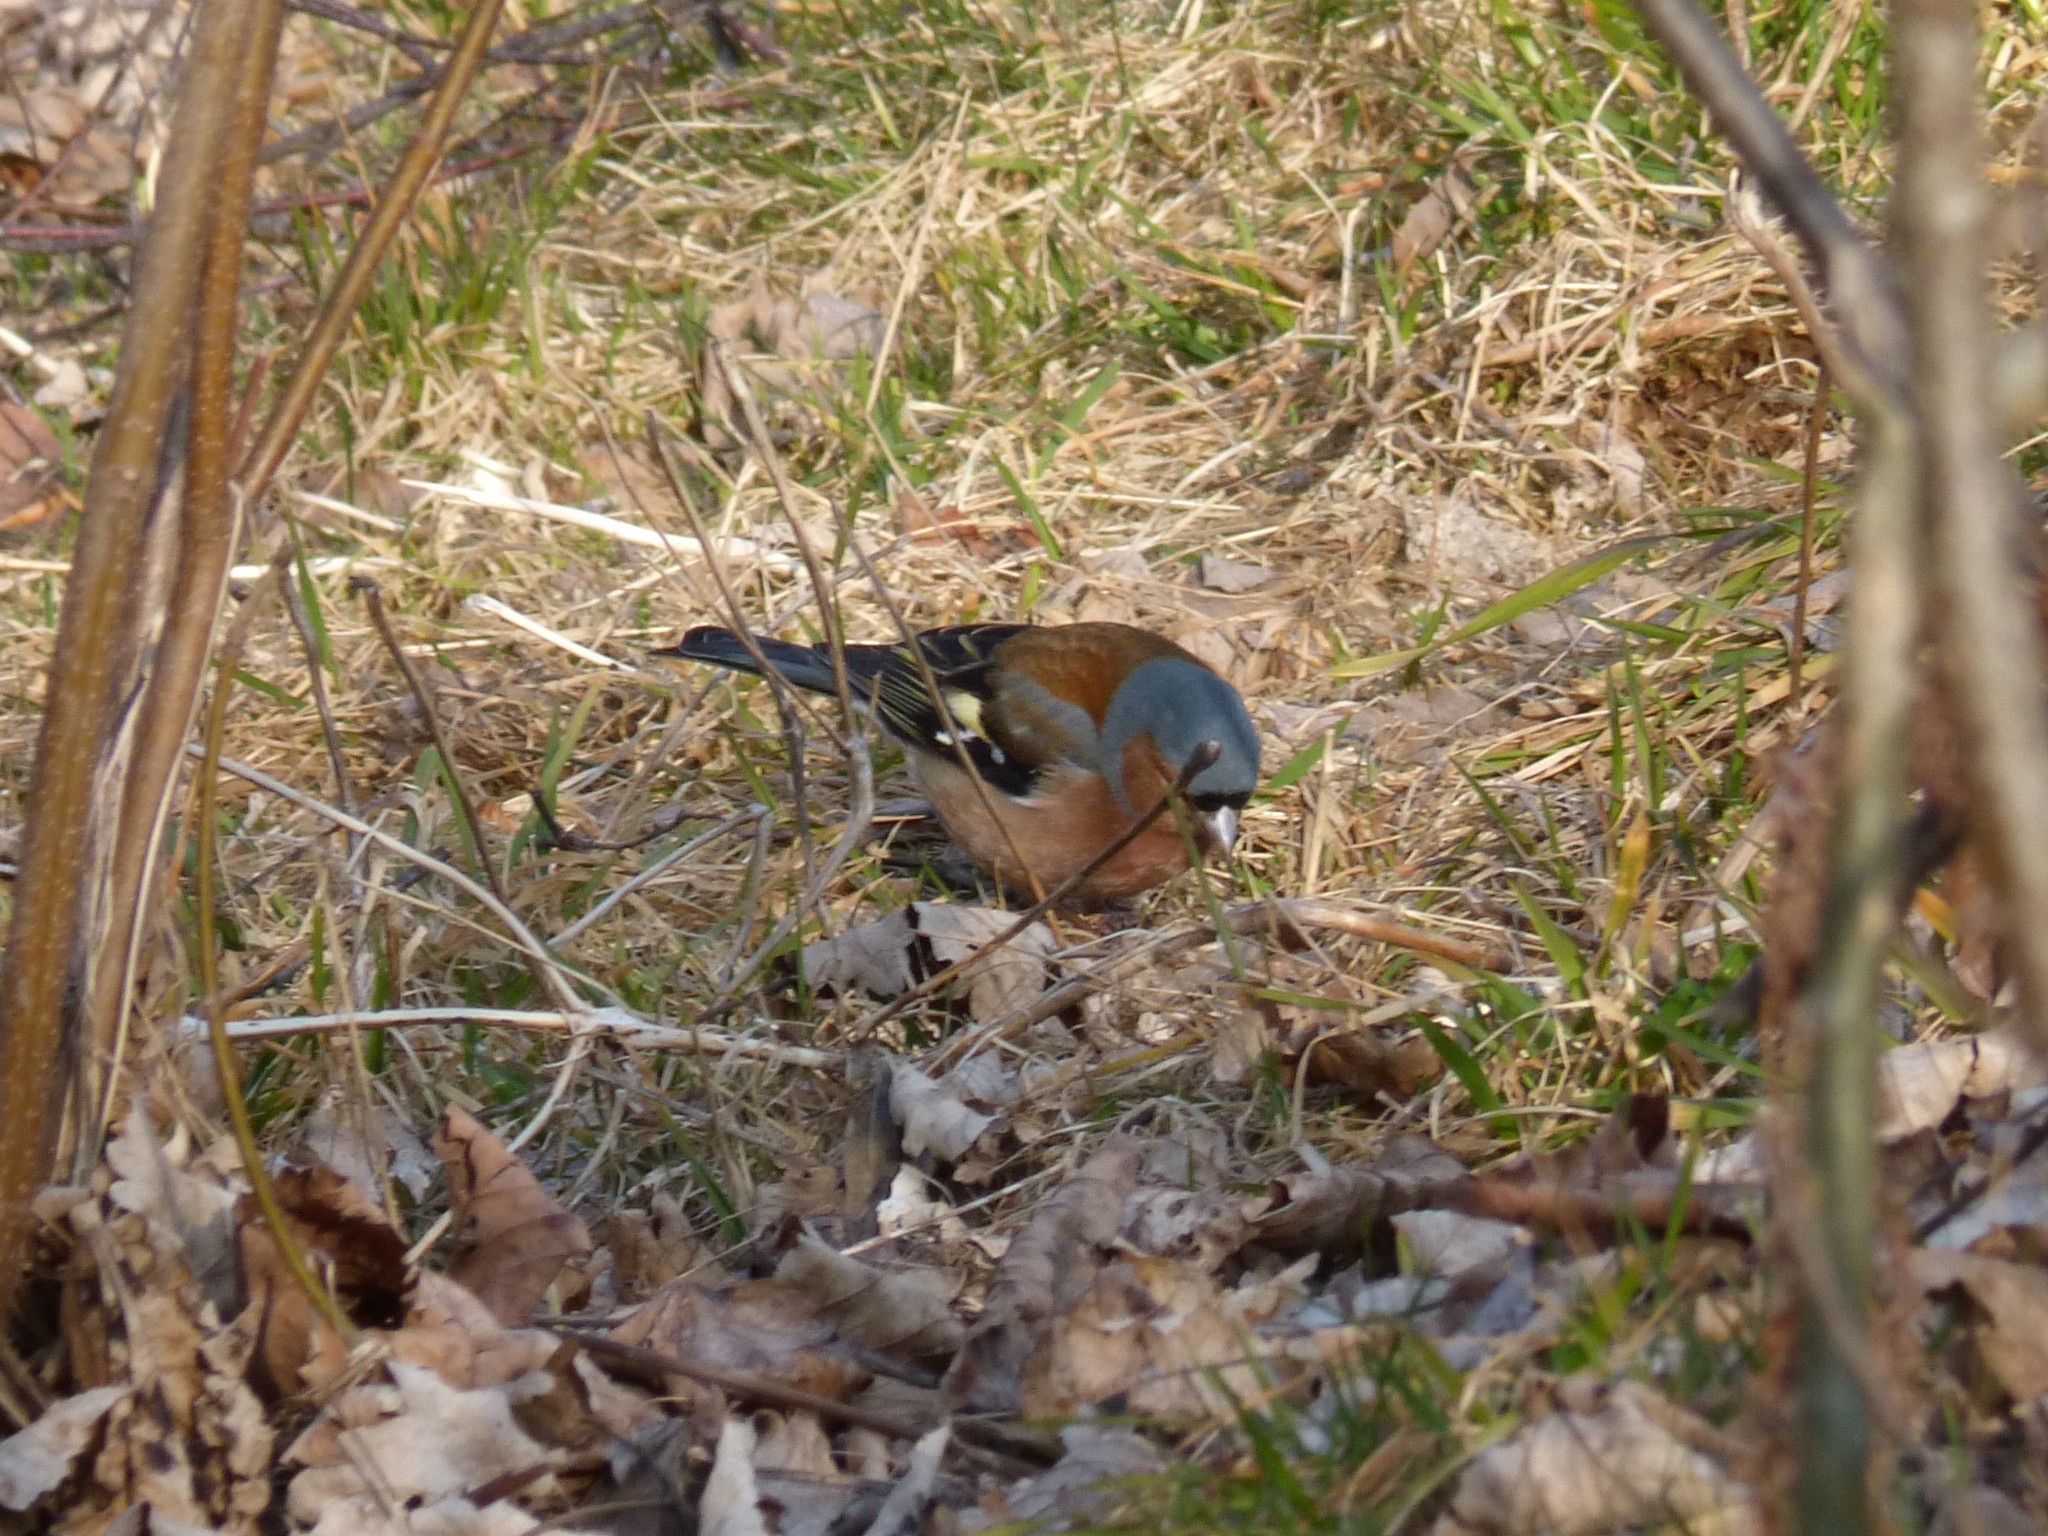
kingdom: Animalia
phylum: Chordata
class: Aves
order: Passeriformes
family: Fringillidae
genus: Fringilla
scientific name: Fringilla coelebs
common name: Common chaffinch
